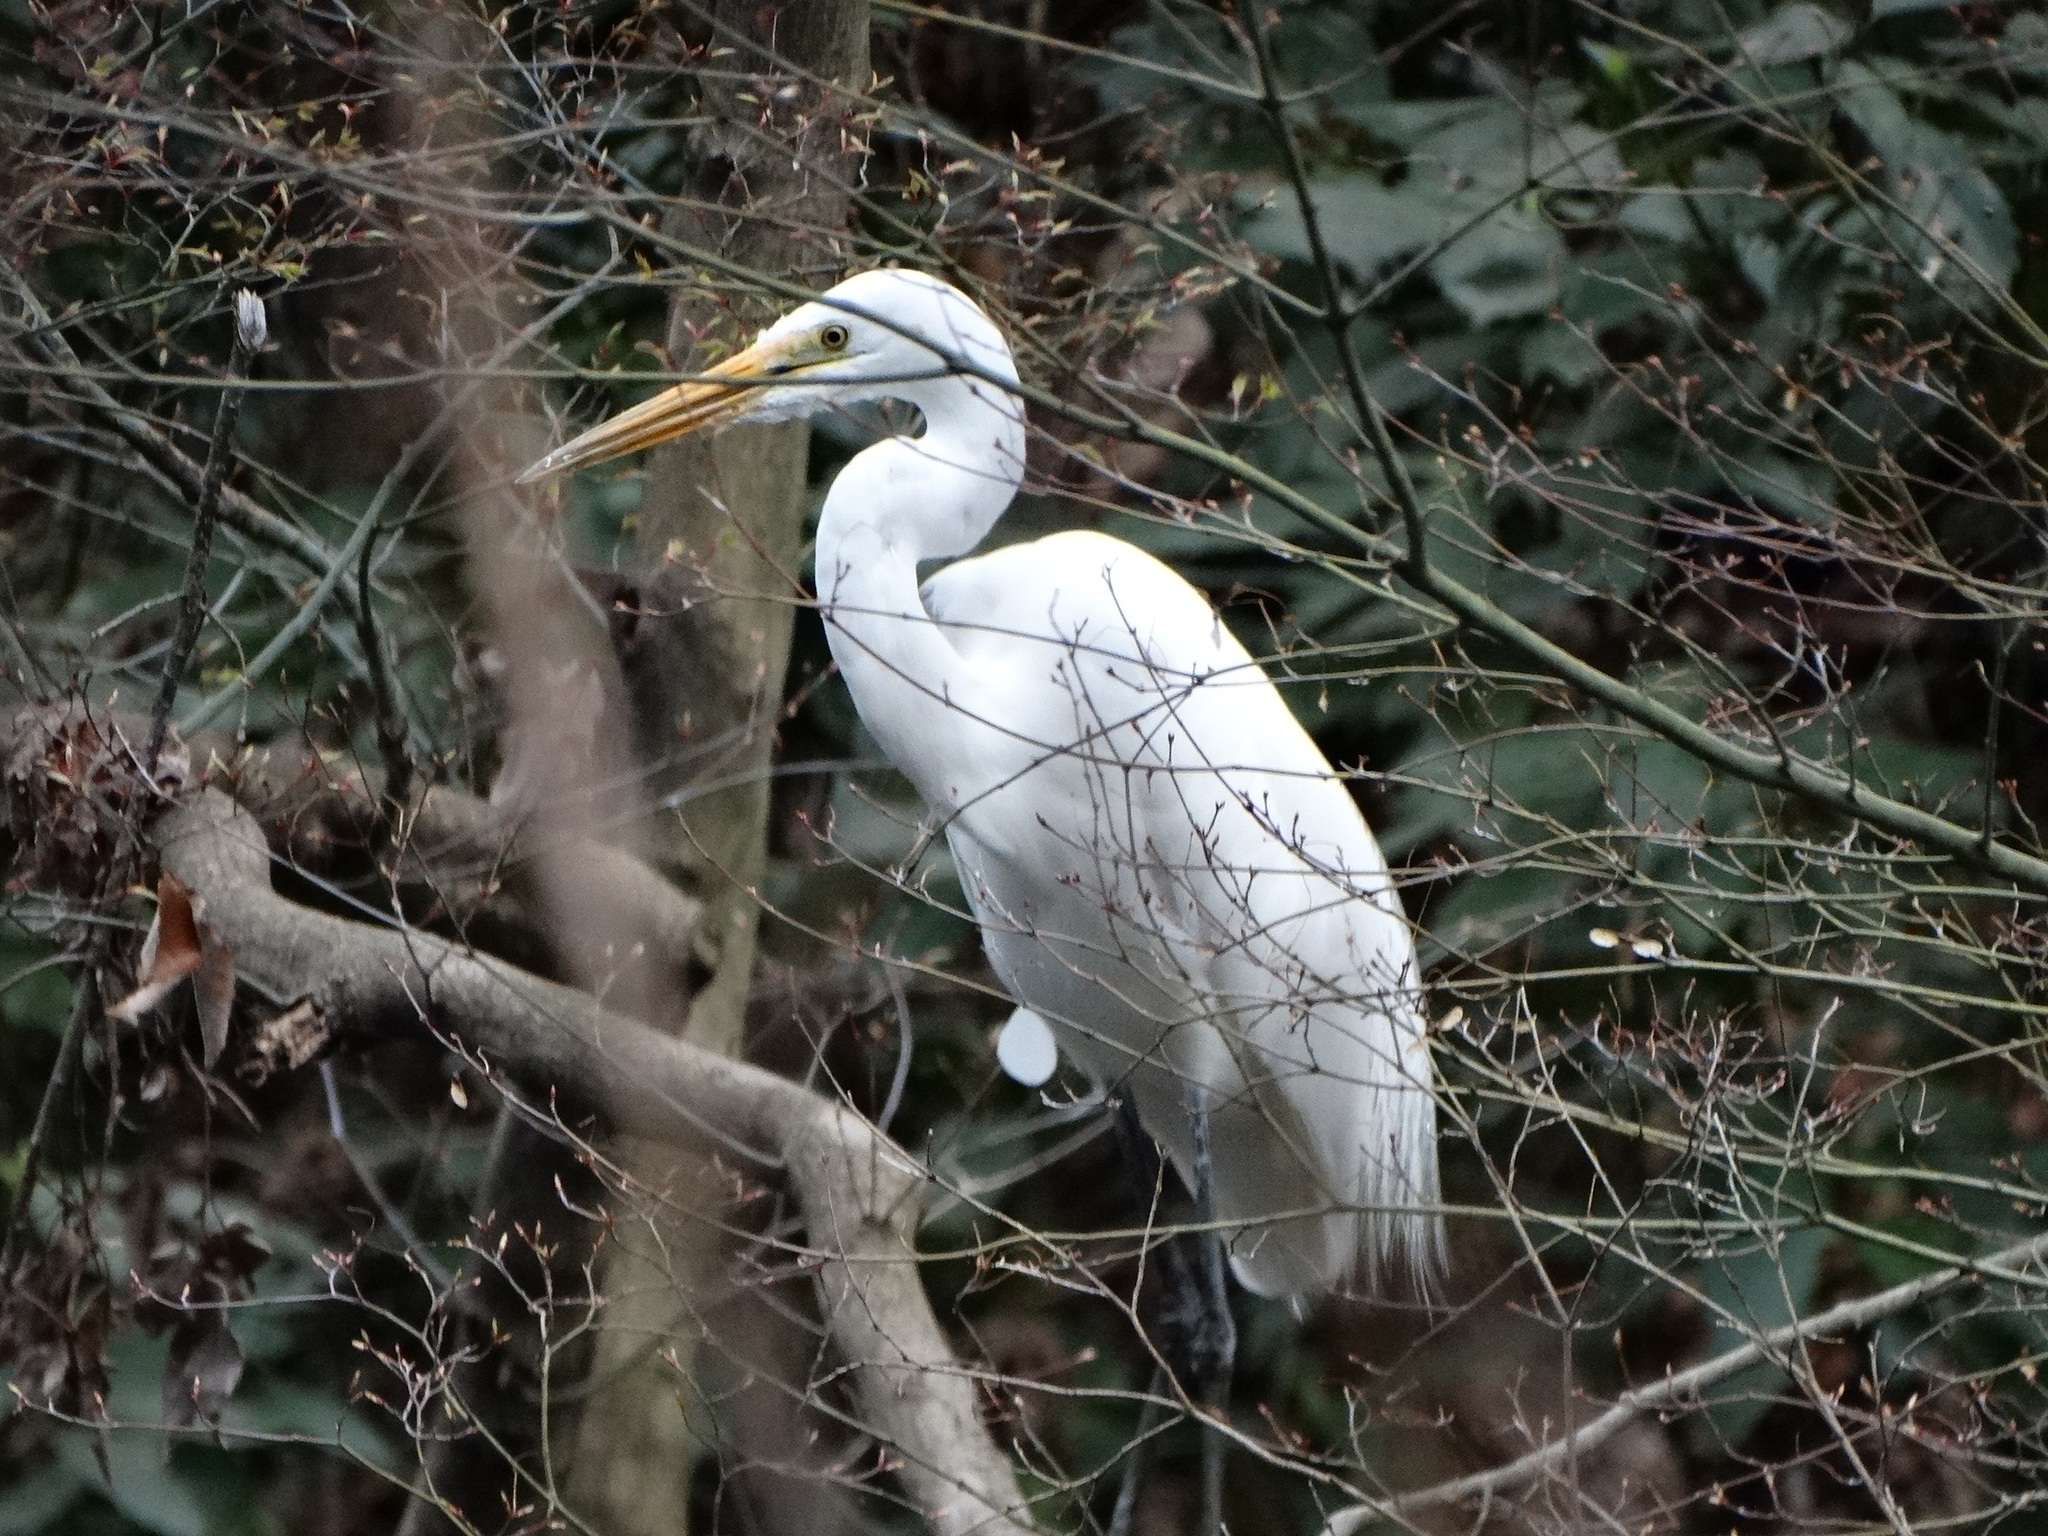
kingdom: Animalia
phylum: Chordata
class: Aves
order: Pelecaniformes
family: Ardeidae
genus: Ardea
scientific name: Ardea alba
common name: Great egret
